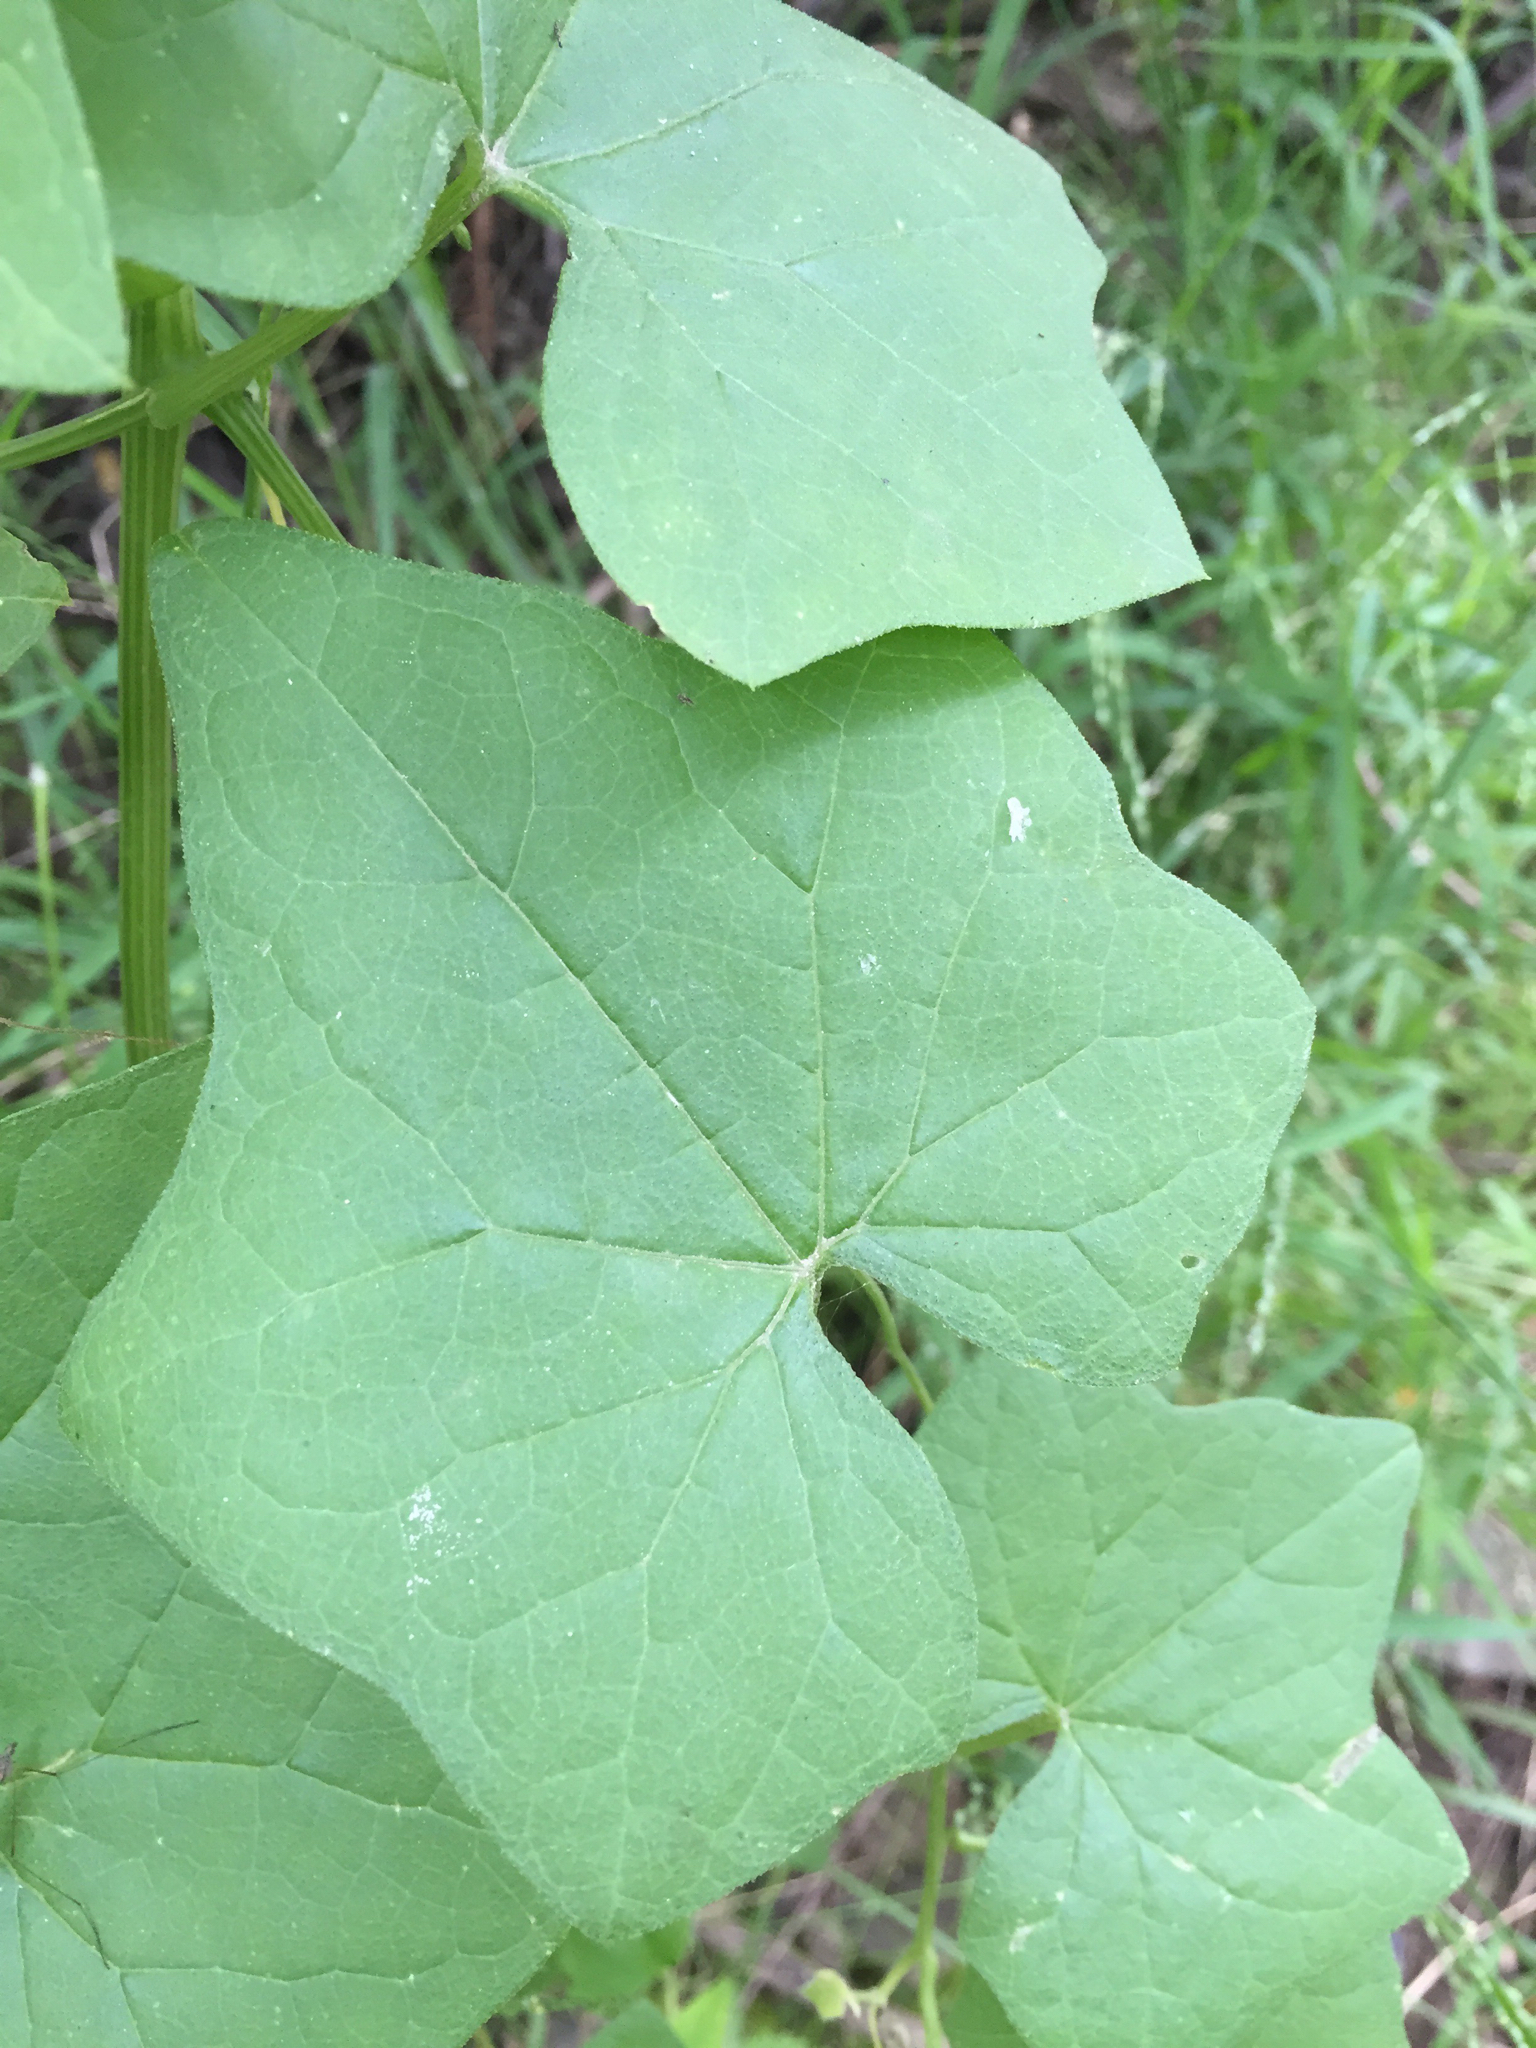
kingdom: Plantae
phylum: Tracheophyta
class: Magnoliopsida
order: Cucurbitales
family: Cucurbitaceae
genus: Marah
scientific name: Marah fabacea
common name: California manroot
